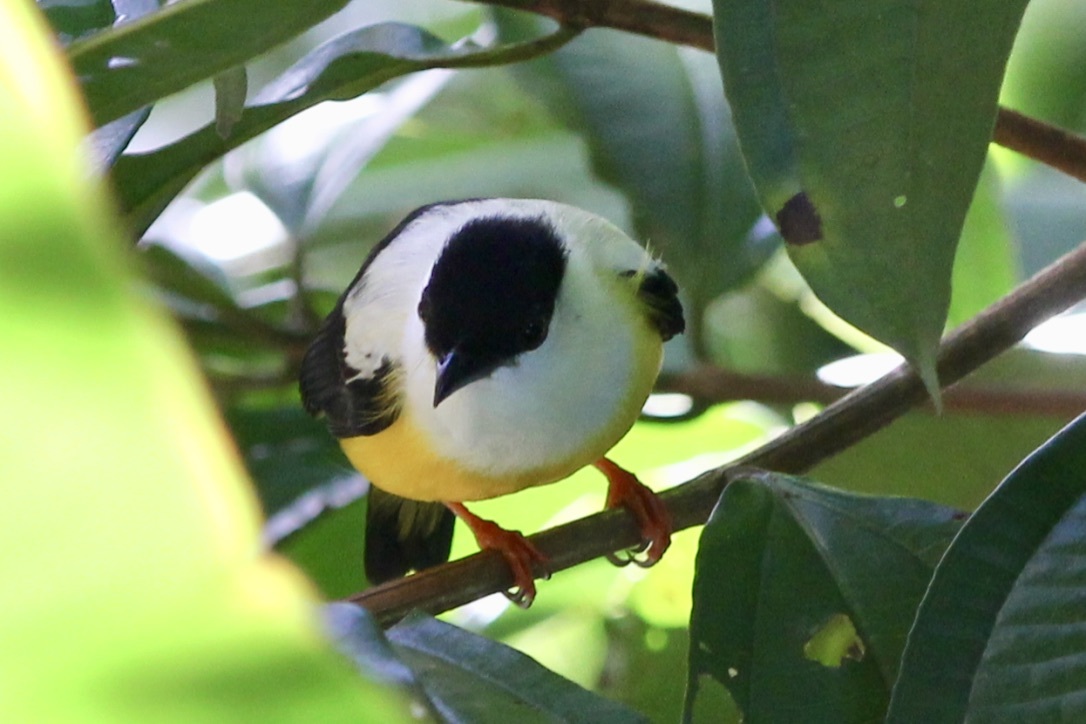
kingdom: Animalia
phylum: Chordata
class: Aves
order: Passeriformes
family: Pipridae
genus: Manacus
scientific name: Manacus candei
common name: White-collared manakin
